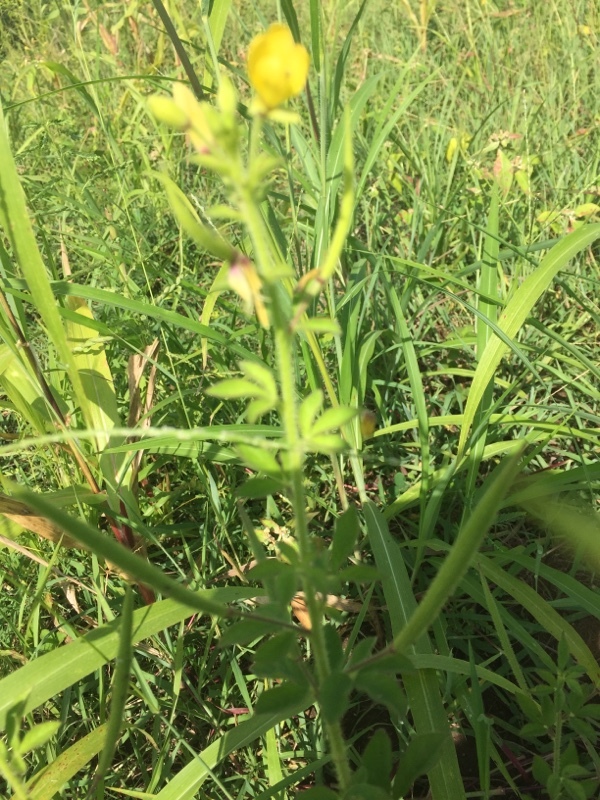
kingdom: Plantae
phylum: Tracheophyta
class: Magnoliopsida
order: Brassicales
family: Cleomaceae
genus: Arivela
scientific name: Arivela viscosa
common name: Asian spiderflower
